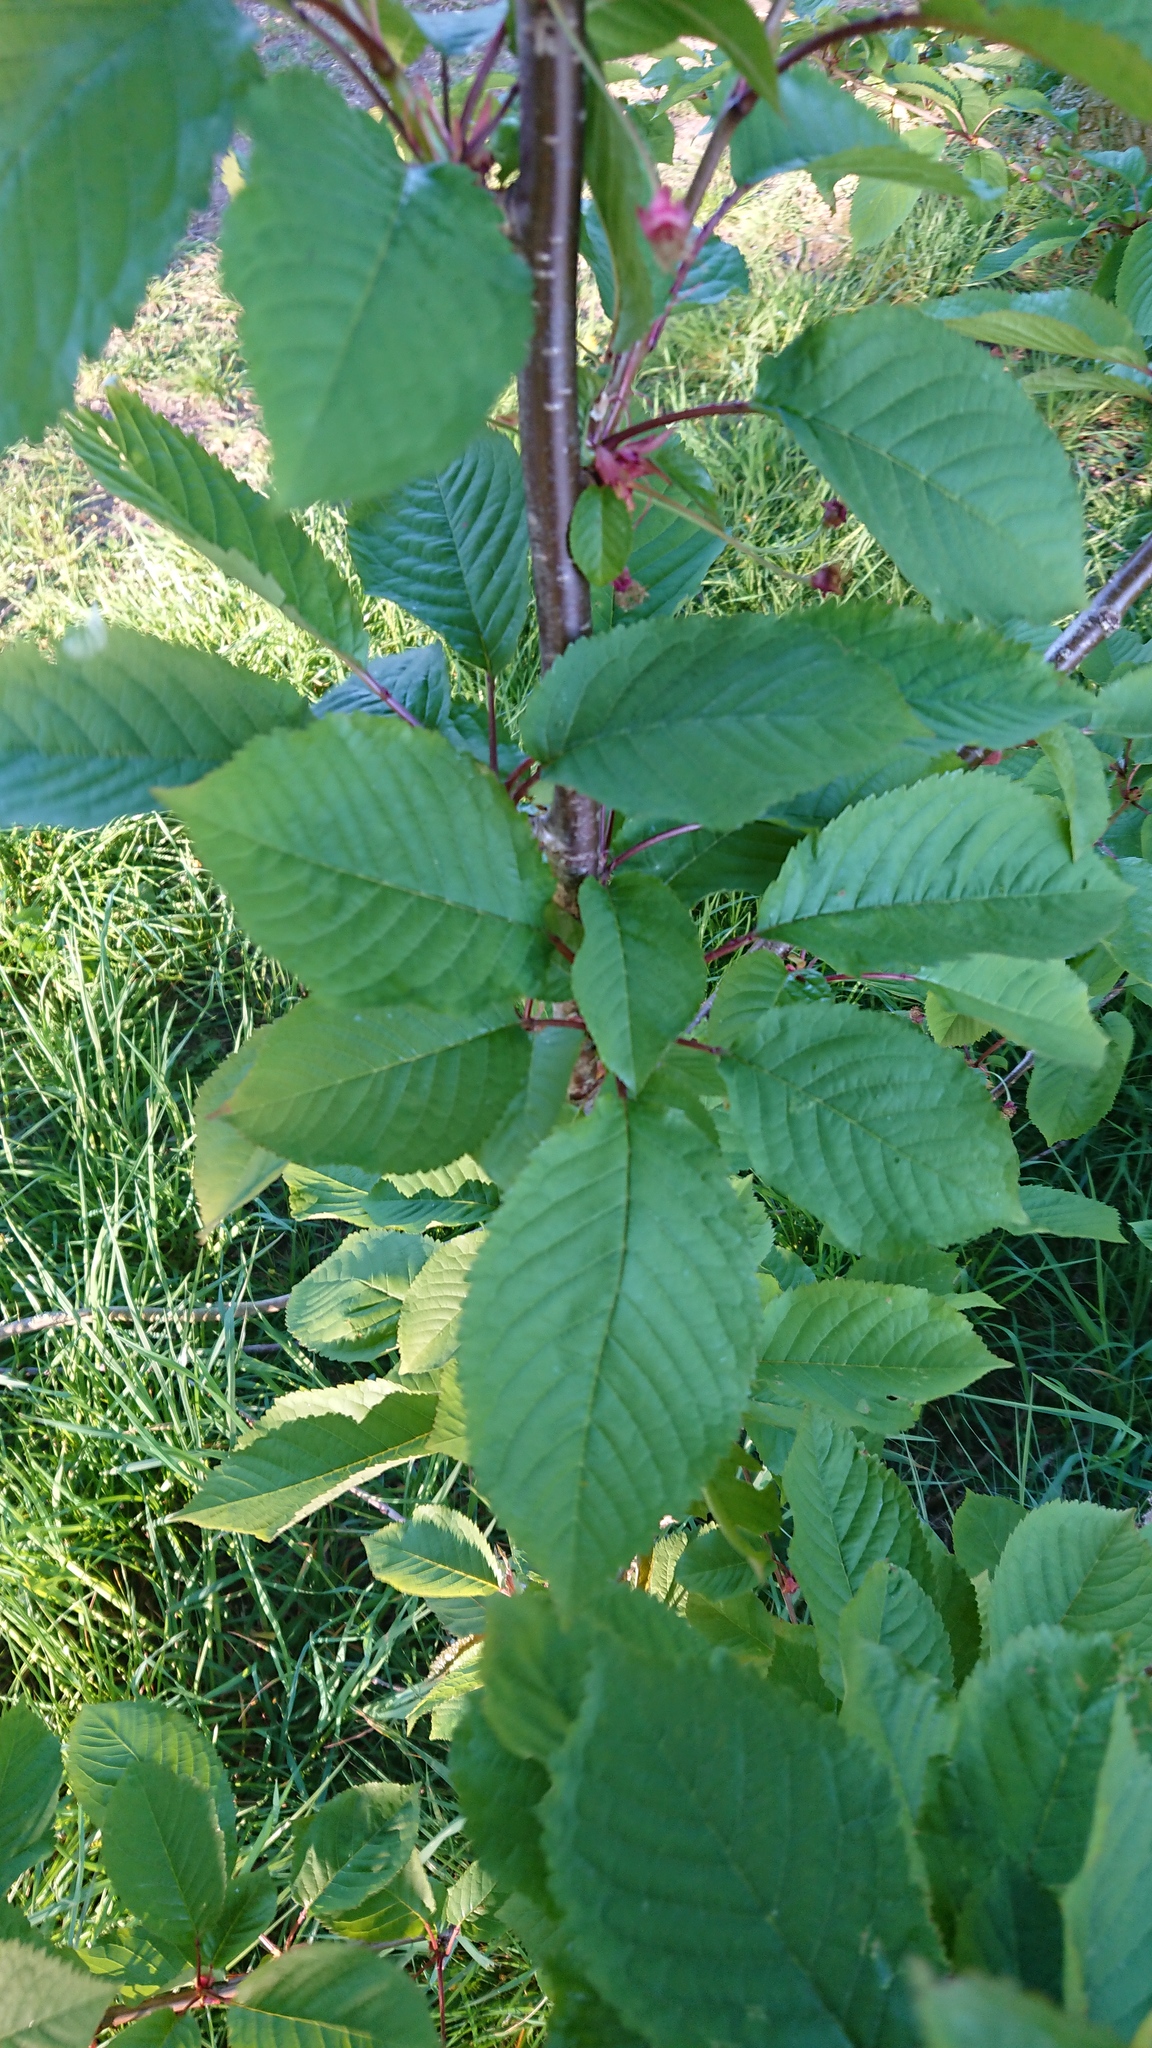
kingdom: Plantae
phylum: Tracheophyta
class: Magnoliopsida
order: Rosales
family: Rosaceae
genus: Prunus
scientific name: Prunus avium
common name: Sweet cherry
